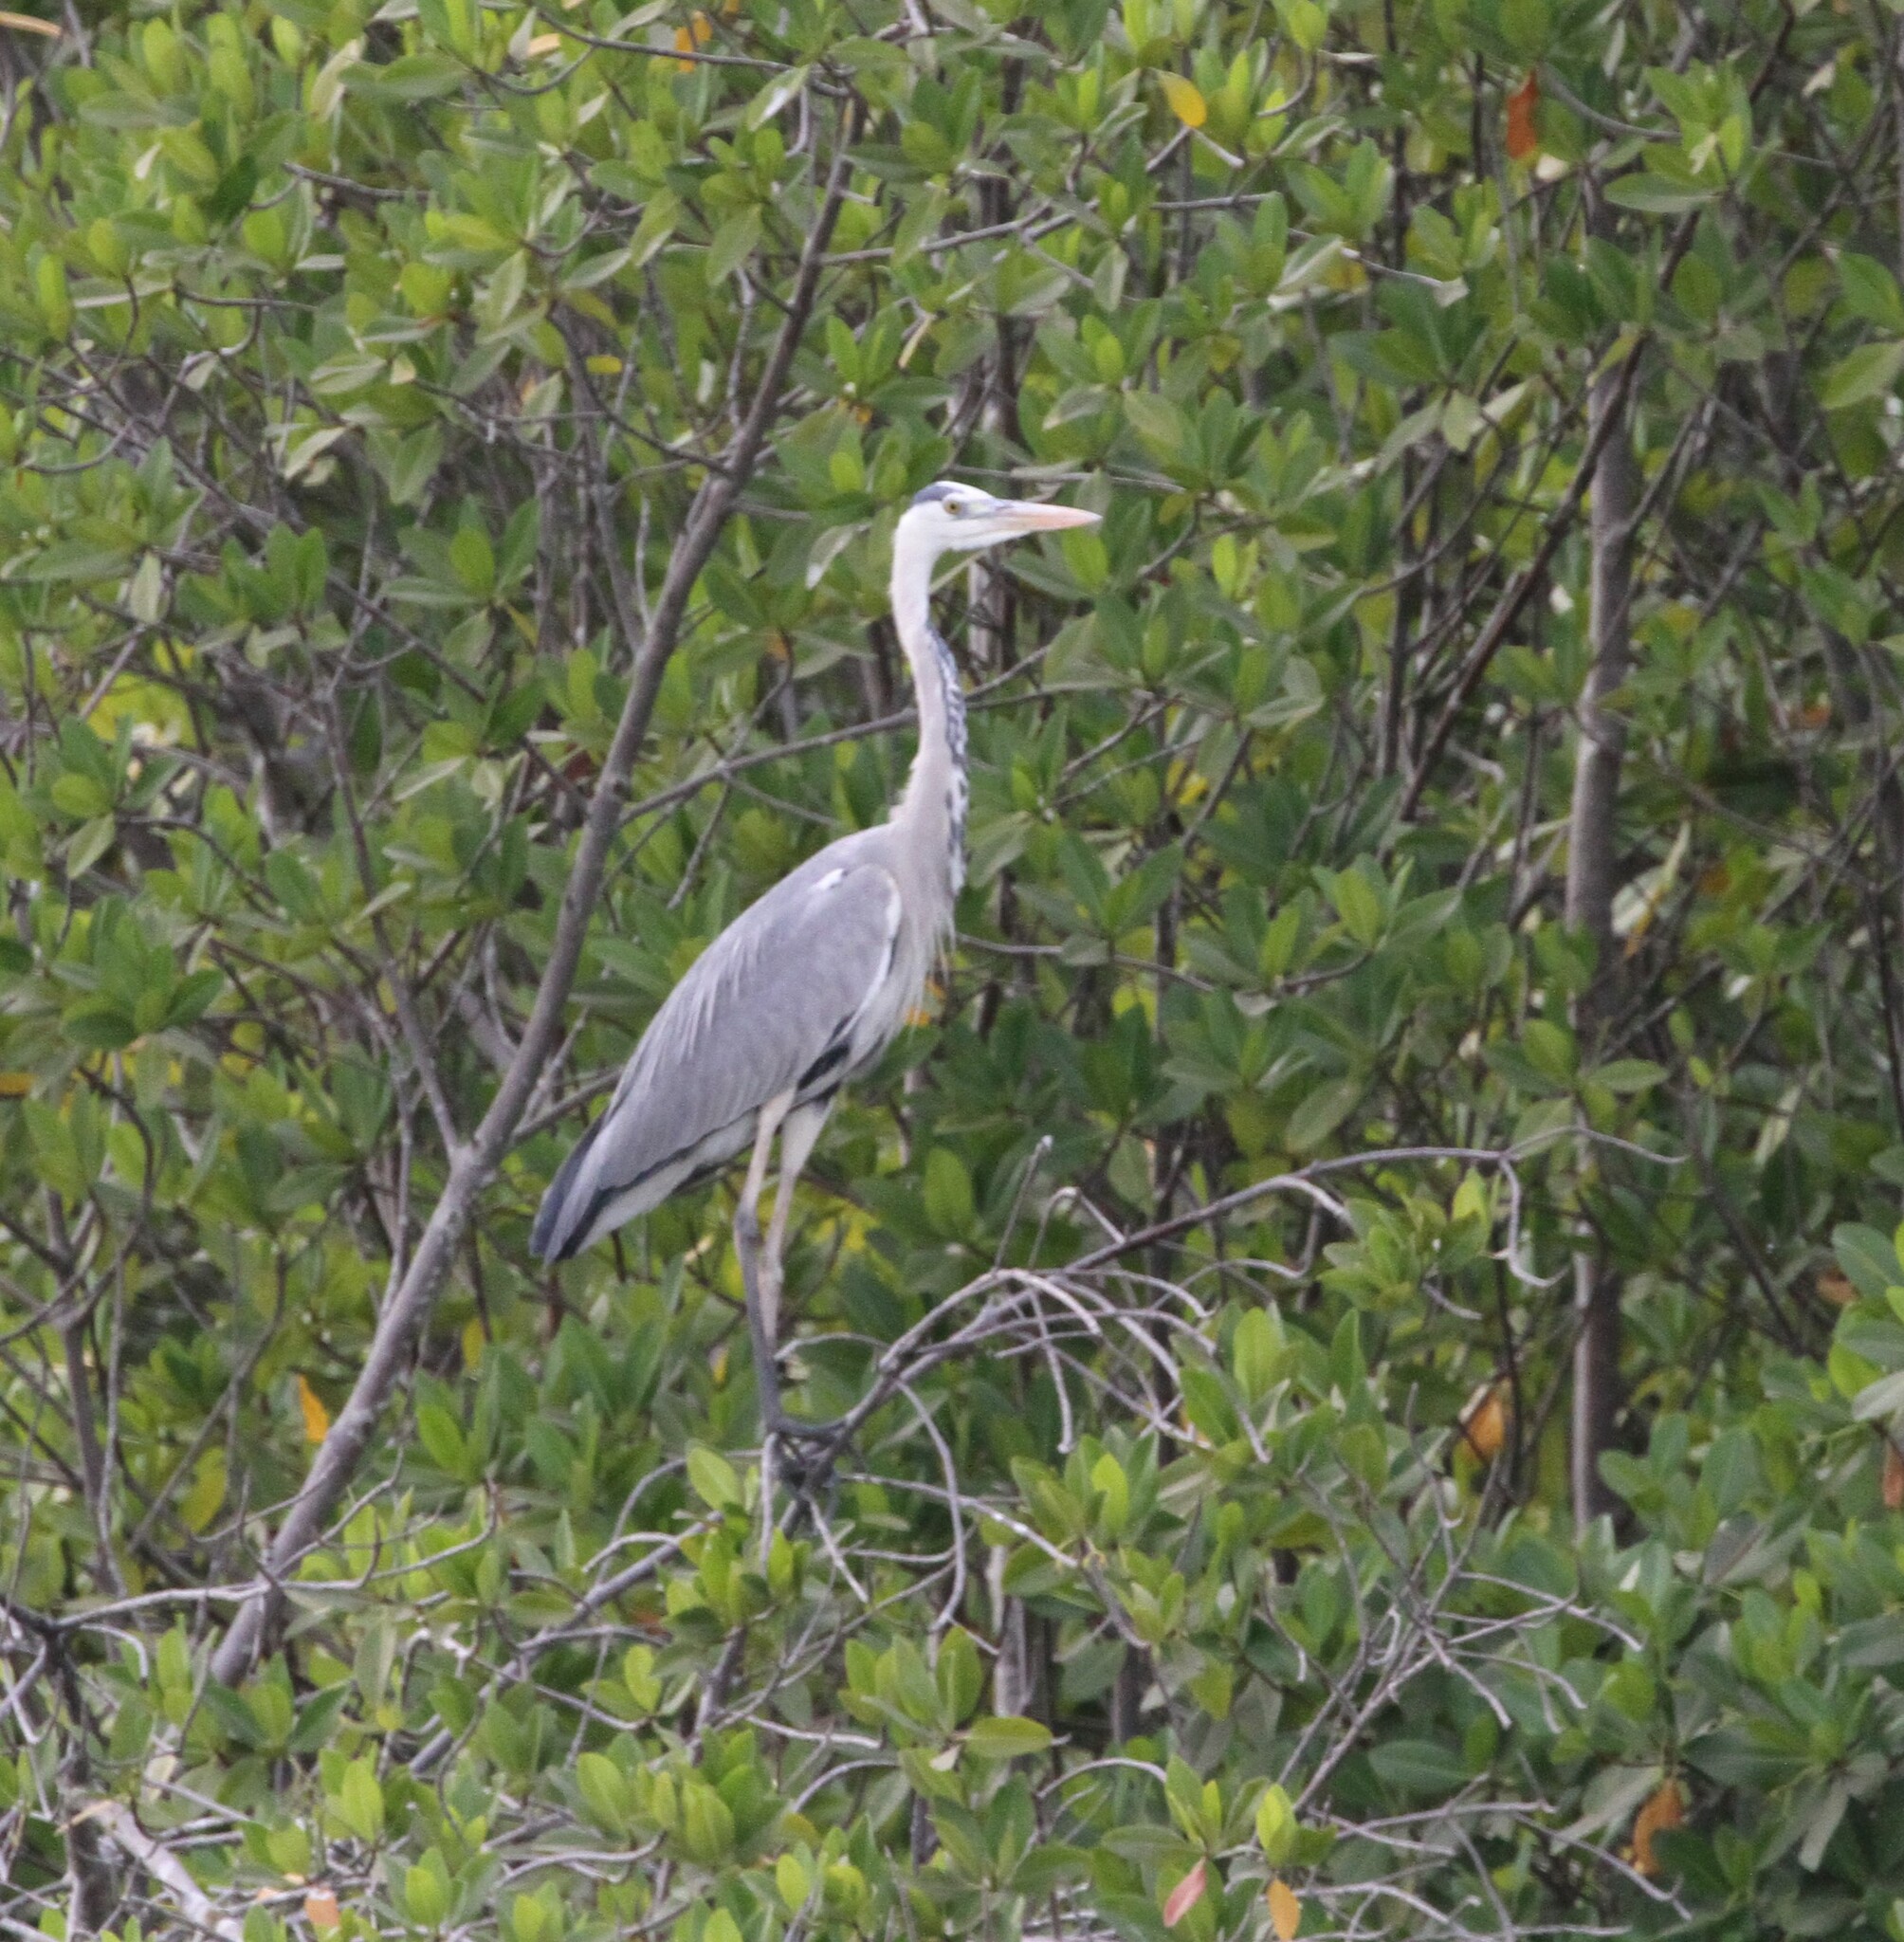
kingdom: Animalia
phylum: Chordata
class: Aves
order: Pelecaniformes
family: Ardeidae
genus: Ardea
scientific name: Ardea cinerea
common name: Grey heron
